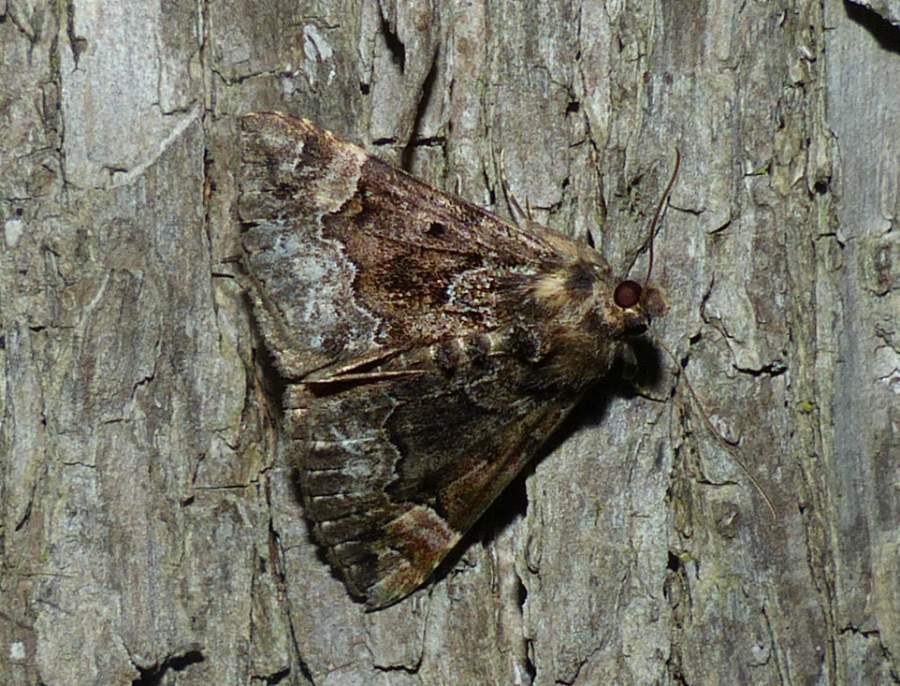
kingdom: Animalia
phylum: Arthropoda
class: Insecta
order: Lepidoptera
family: Erebidae
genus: Hypena
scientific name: Hypena palparia
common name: Mottled bomolocha moth
